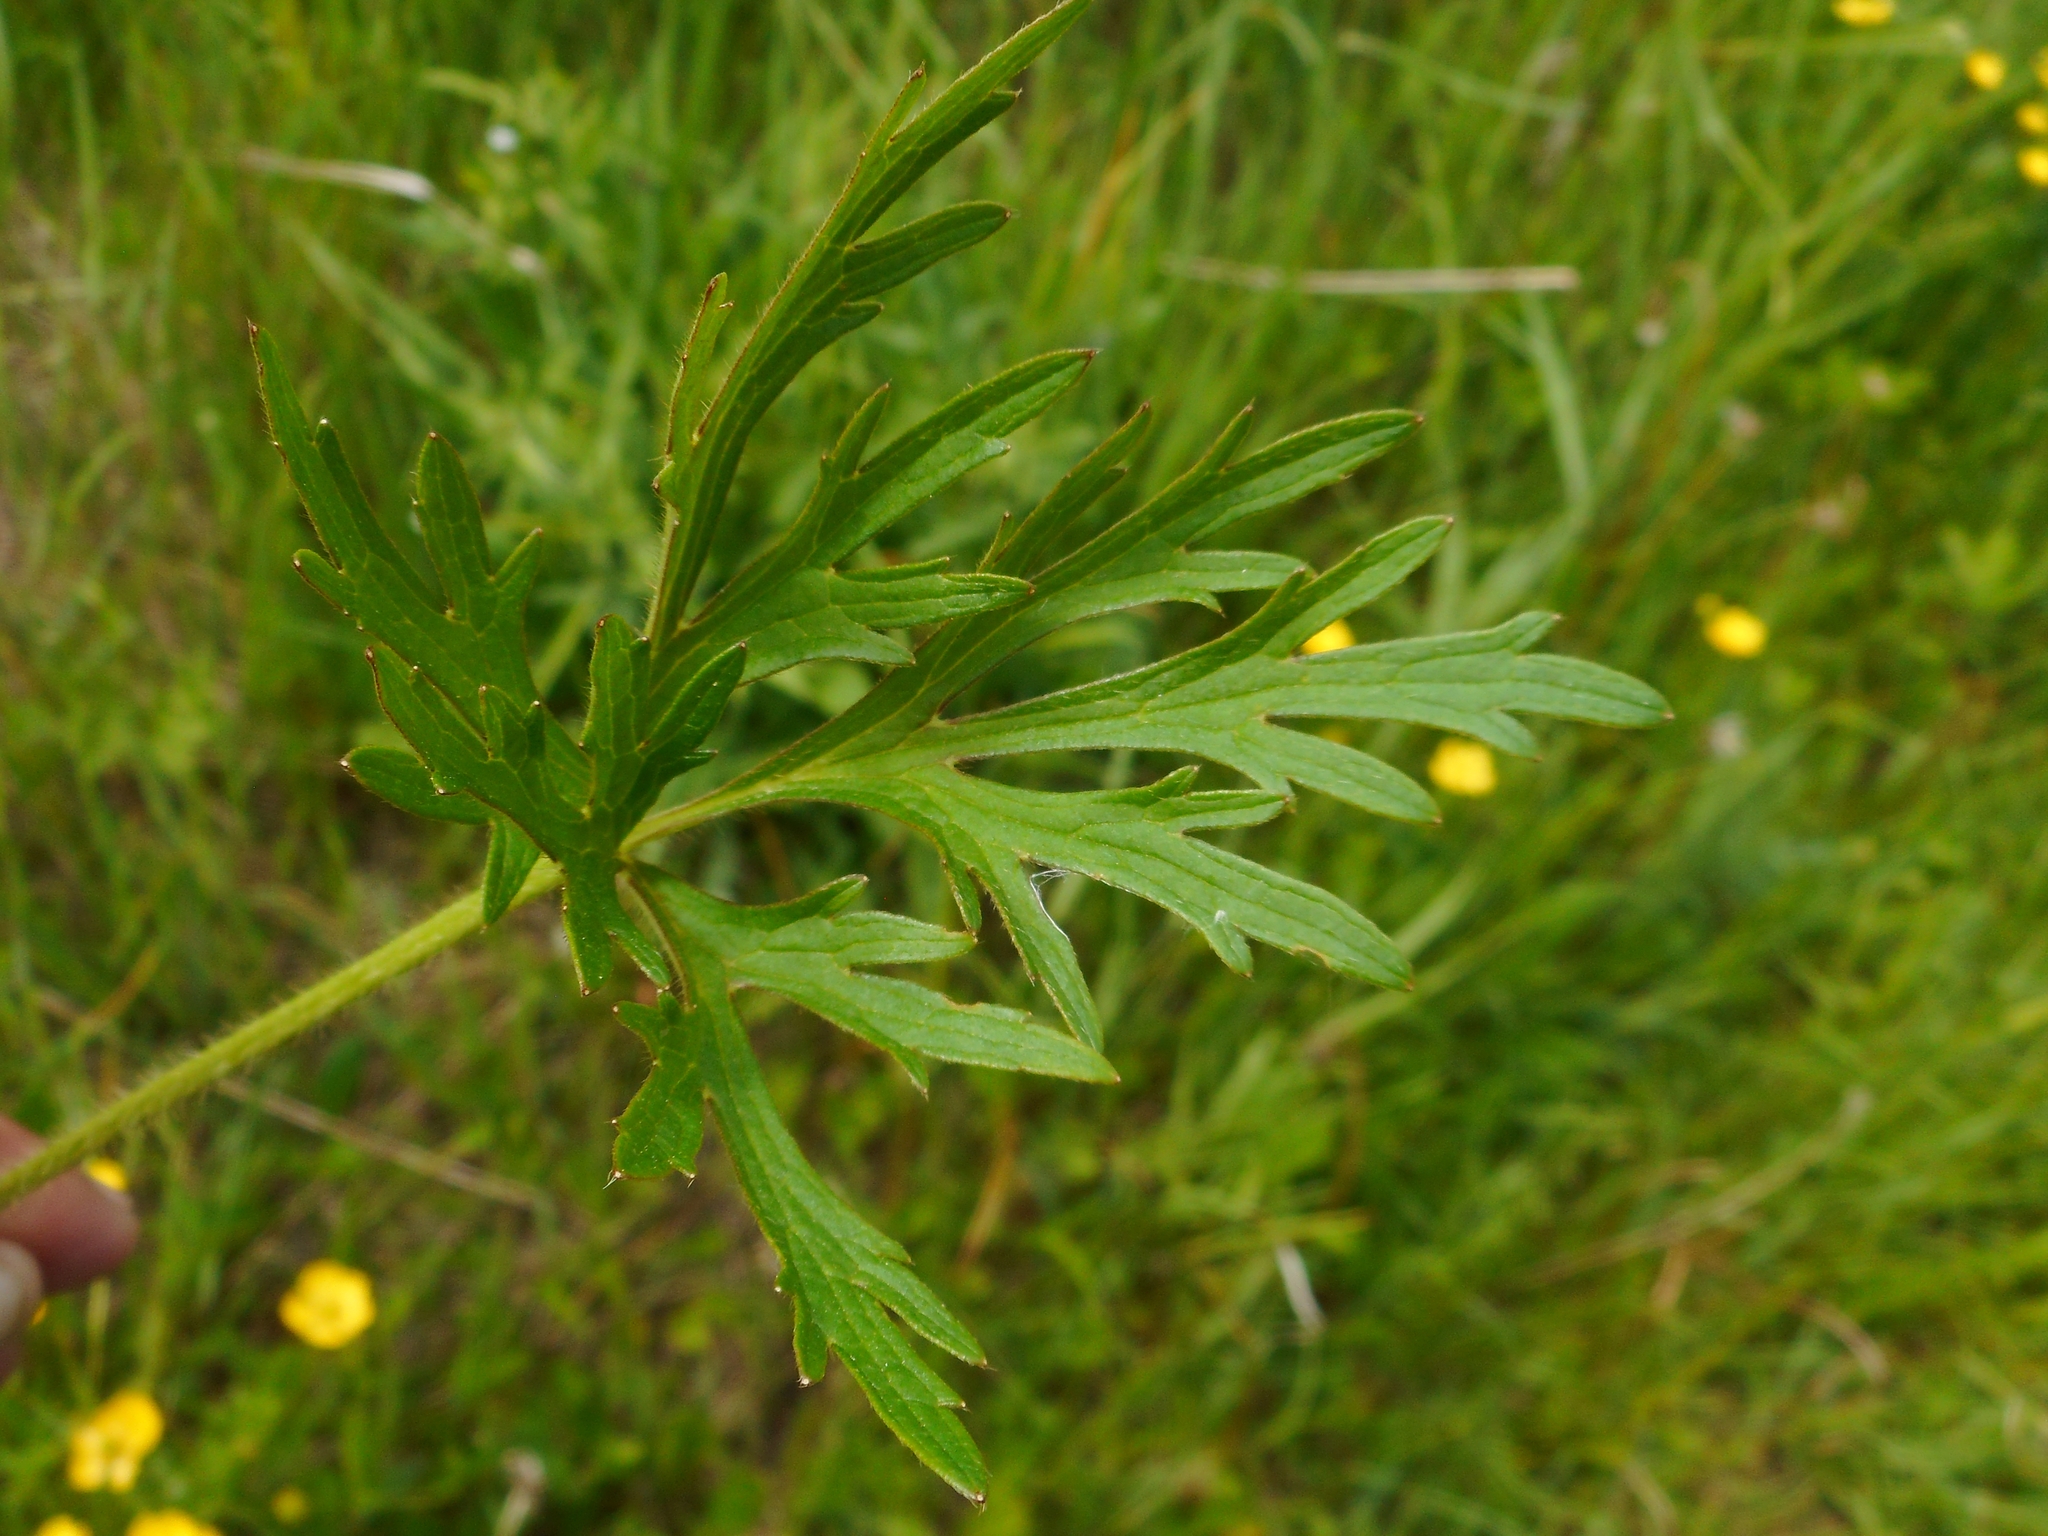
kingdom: Plantae
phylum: Tracheophyta
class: Magnoliopsida
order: Ranunculales
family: Ranunculaceae
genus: Ranunculus
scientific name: Ranunculus polyanthemos
